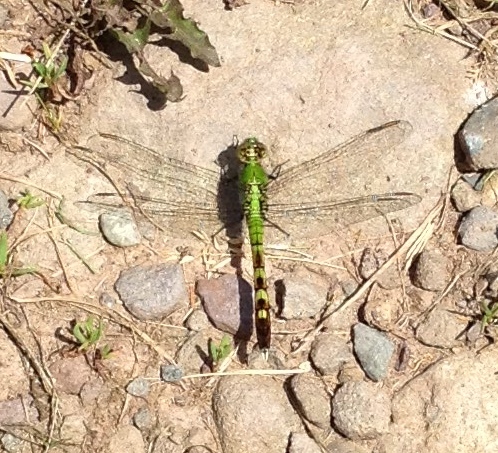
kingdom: Animalia
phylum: Arthropoda
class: Insecta
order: Odonata
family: Libellulidae
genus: Erythemis
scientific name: Erythemis simplicicollis
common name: Eastern pondhawk
